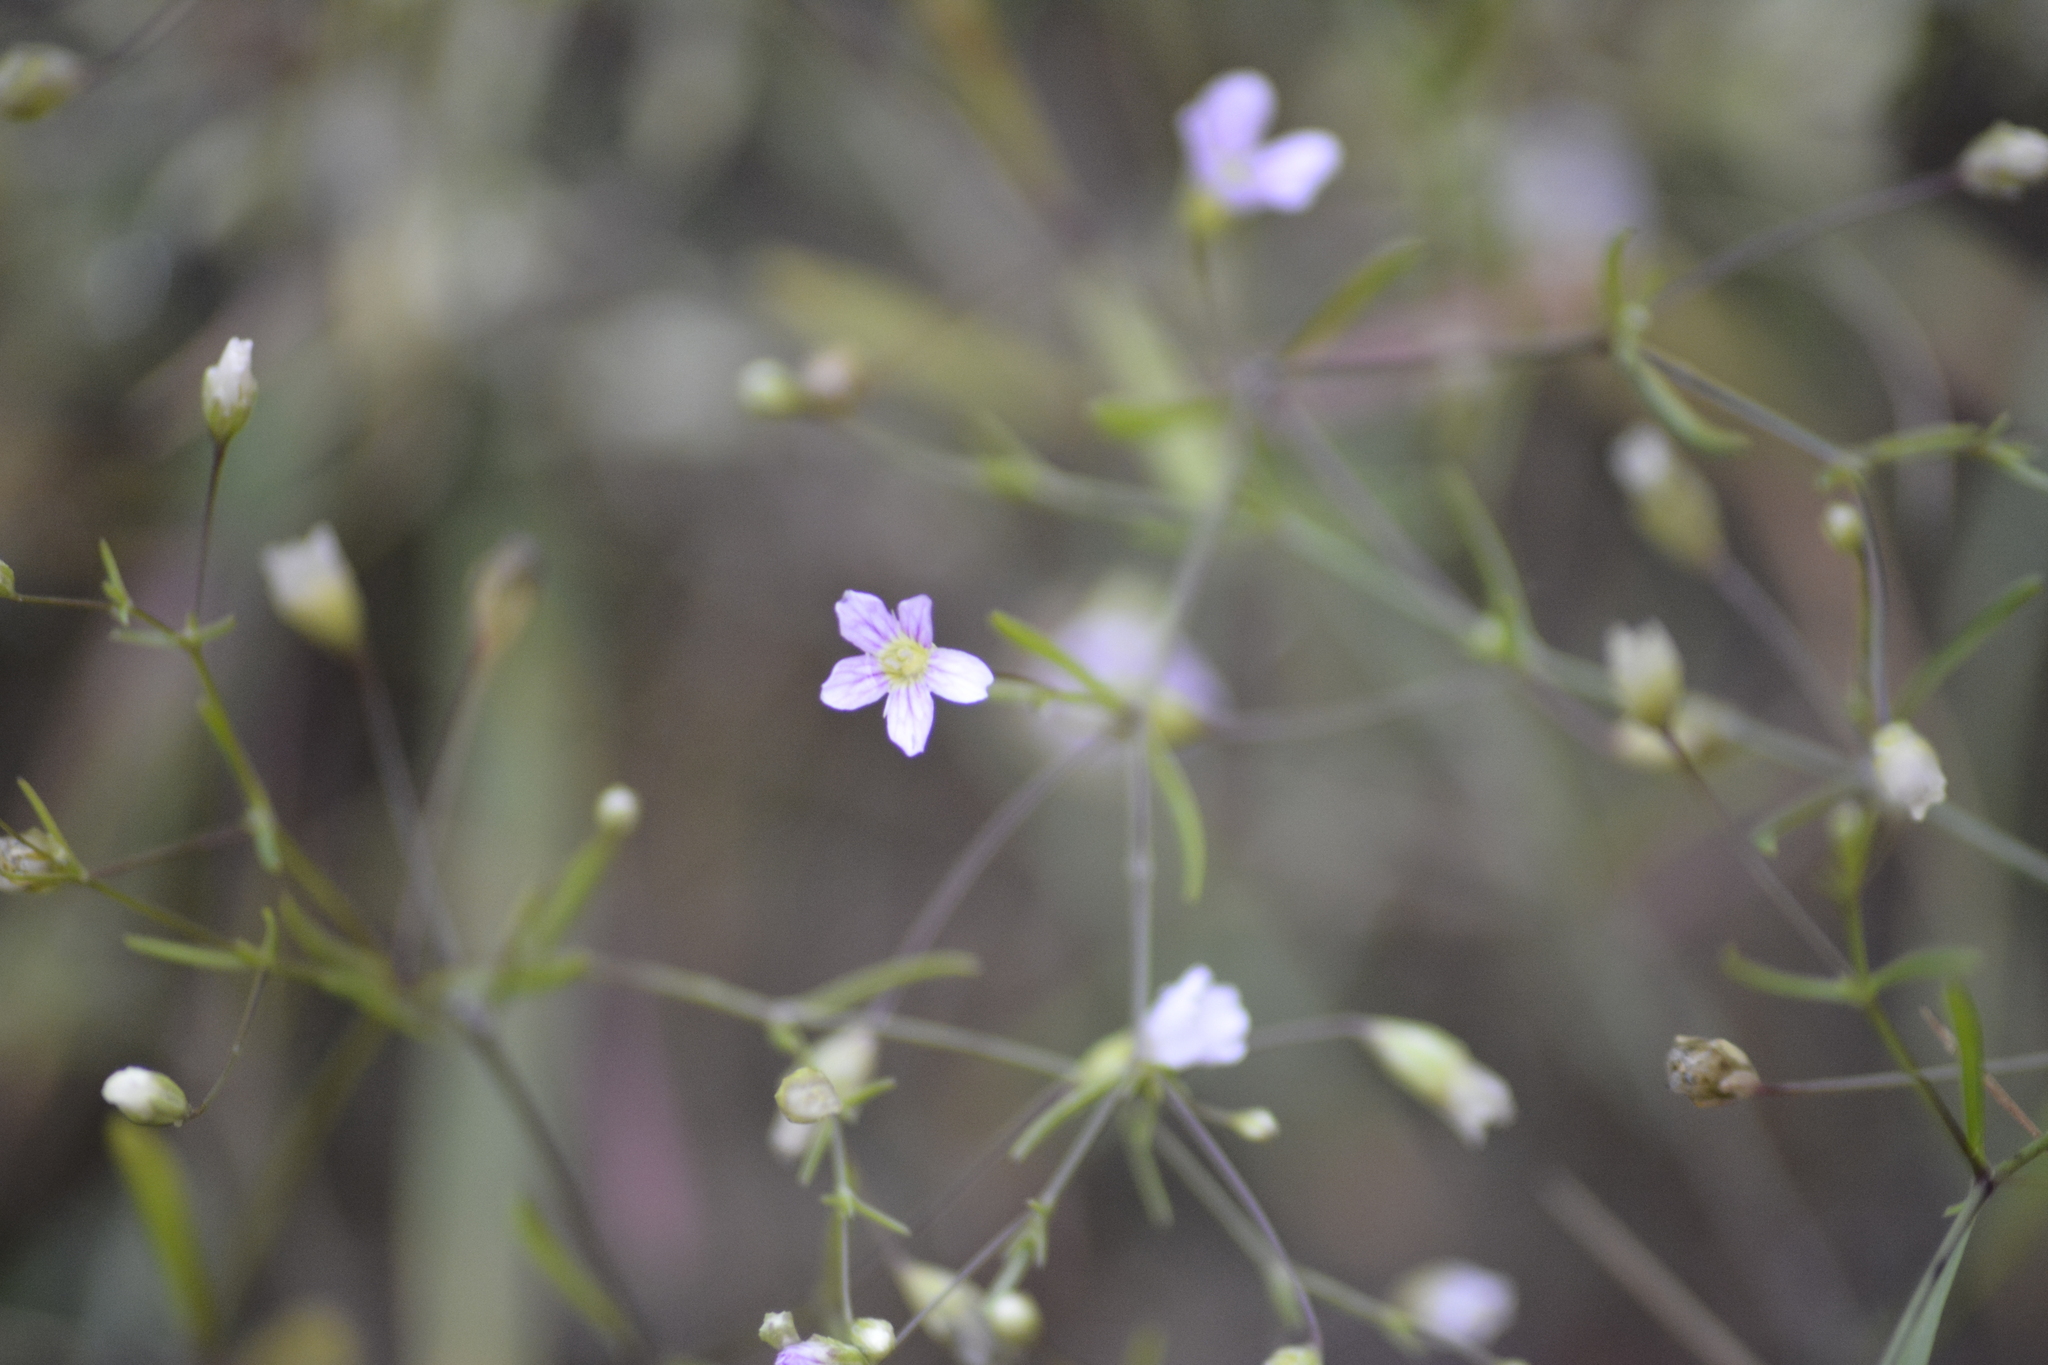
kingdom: Plantae
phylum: Tracheophyta
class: Magnoliopsida
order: Caryophyllales
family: Caryophyllaceae
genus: Psammophiliella
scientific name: Psammophiliella muralis
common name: Cushion baby's-breath
